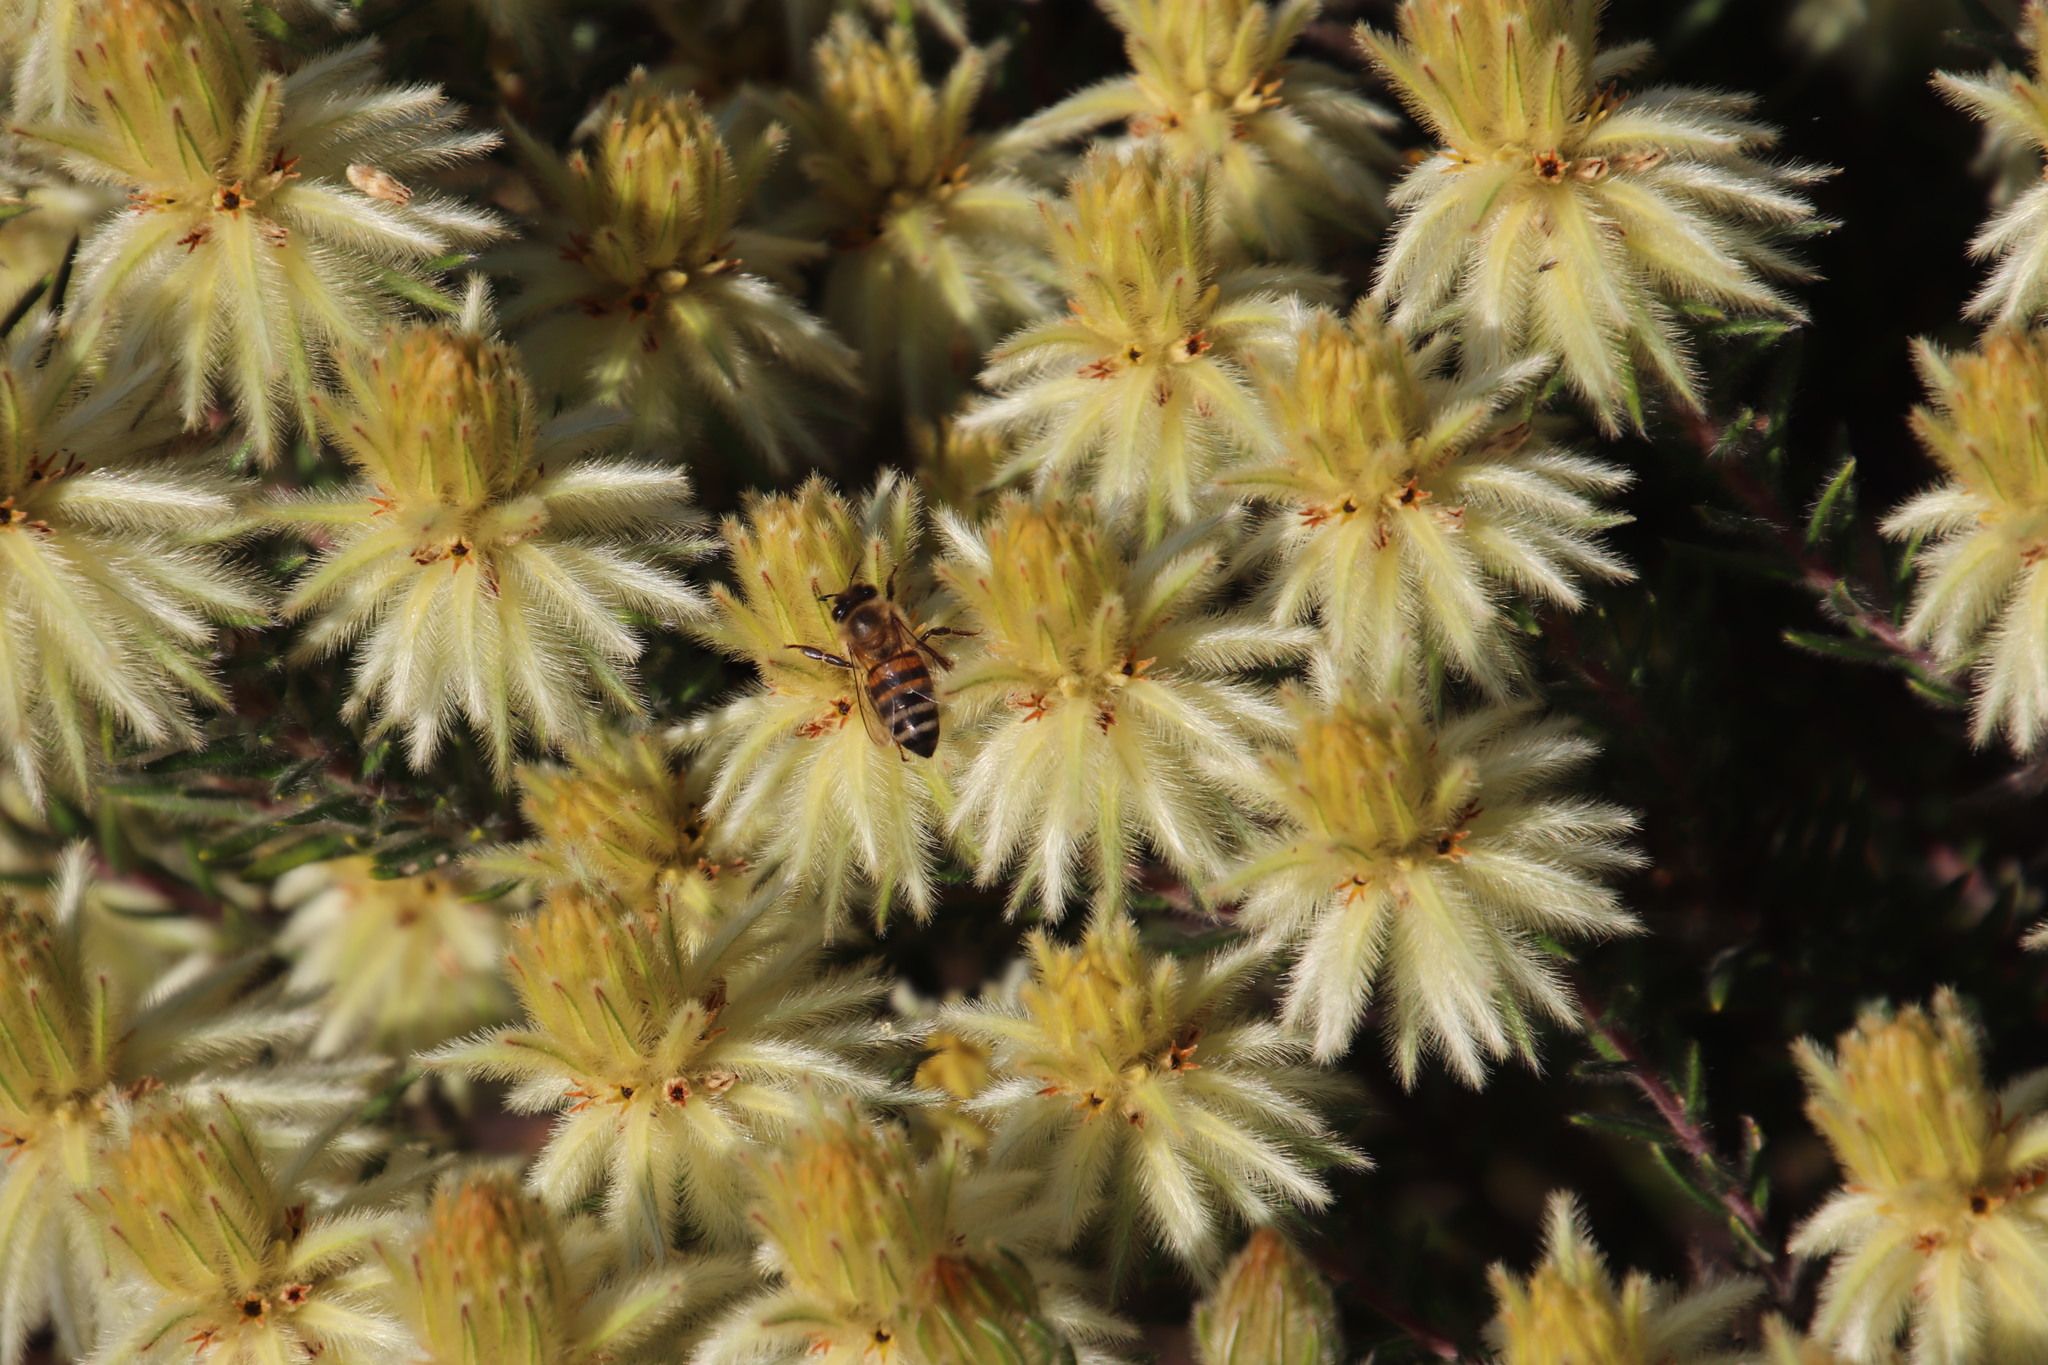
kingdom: Plantae
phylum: Tracheophyta
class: Magnoliopsida
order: Rosales
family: Rhamnaceae
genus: Phylica
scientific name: Phylica pubescens
